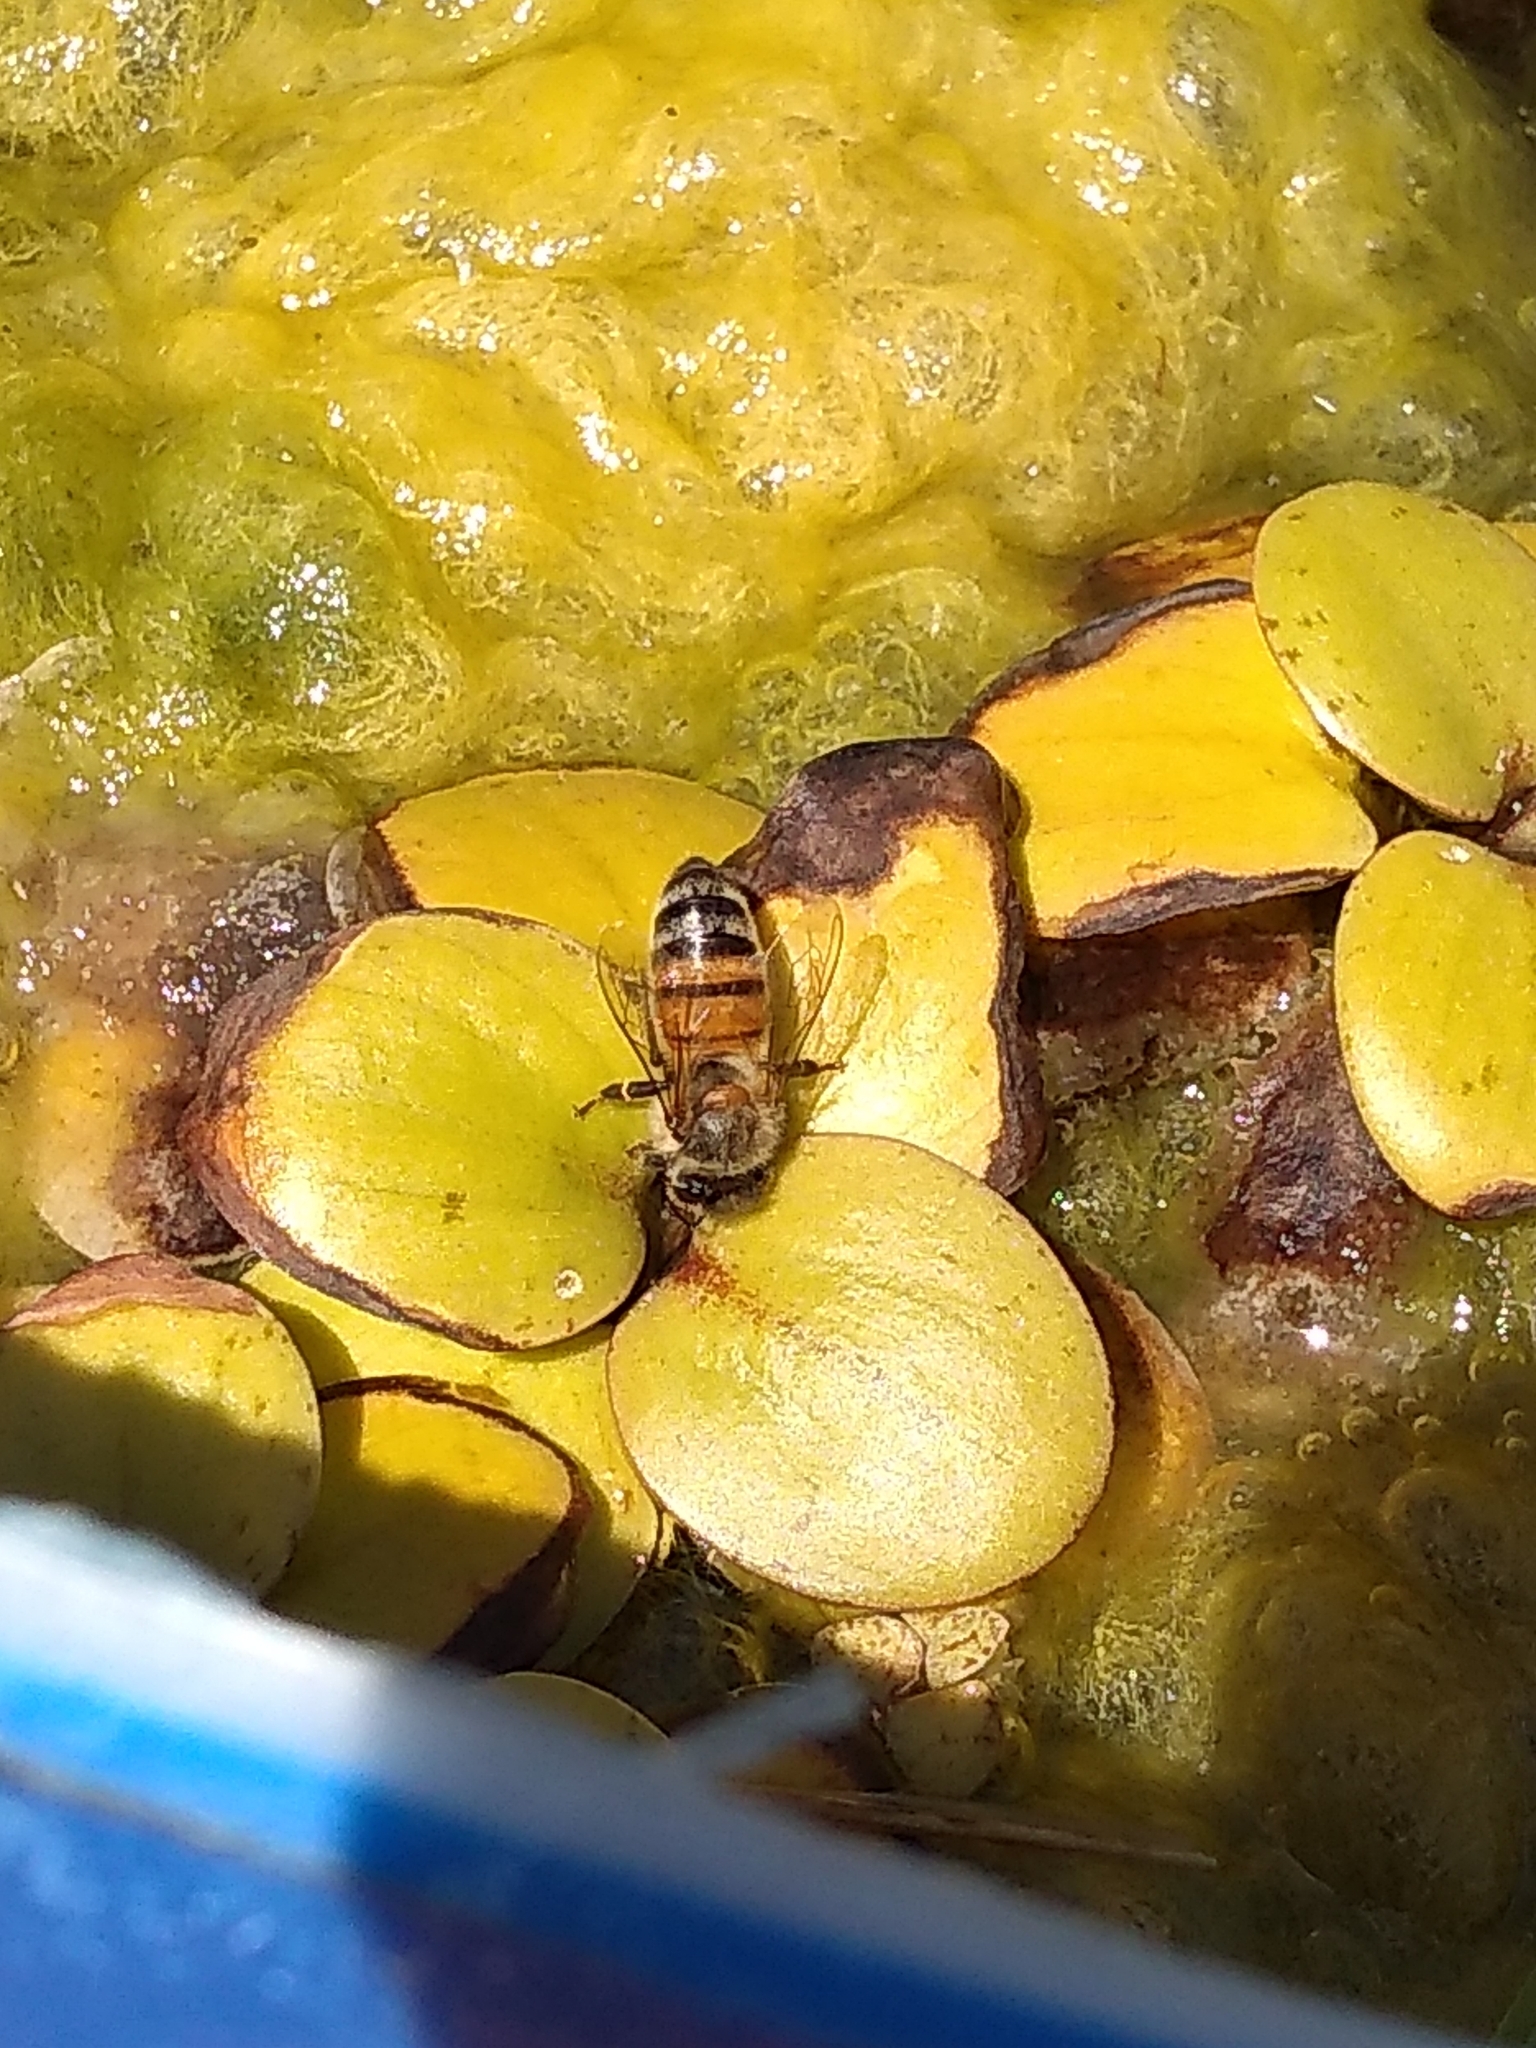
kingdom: Animalia
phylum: Arthropoda
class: Insecta
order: Hymenoptera
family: Apidae
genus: Apis
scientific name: Apis mellifera
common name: Honey bee
